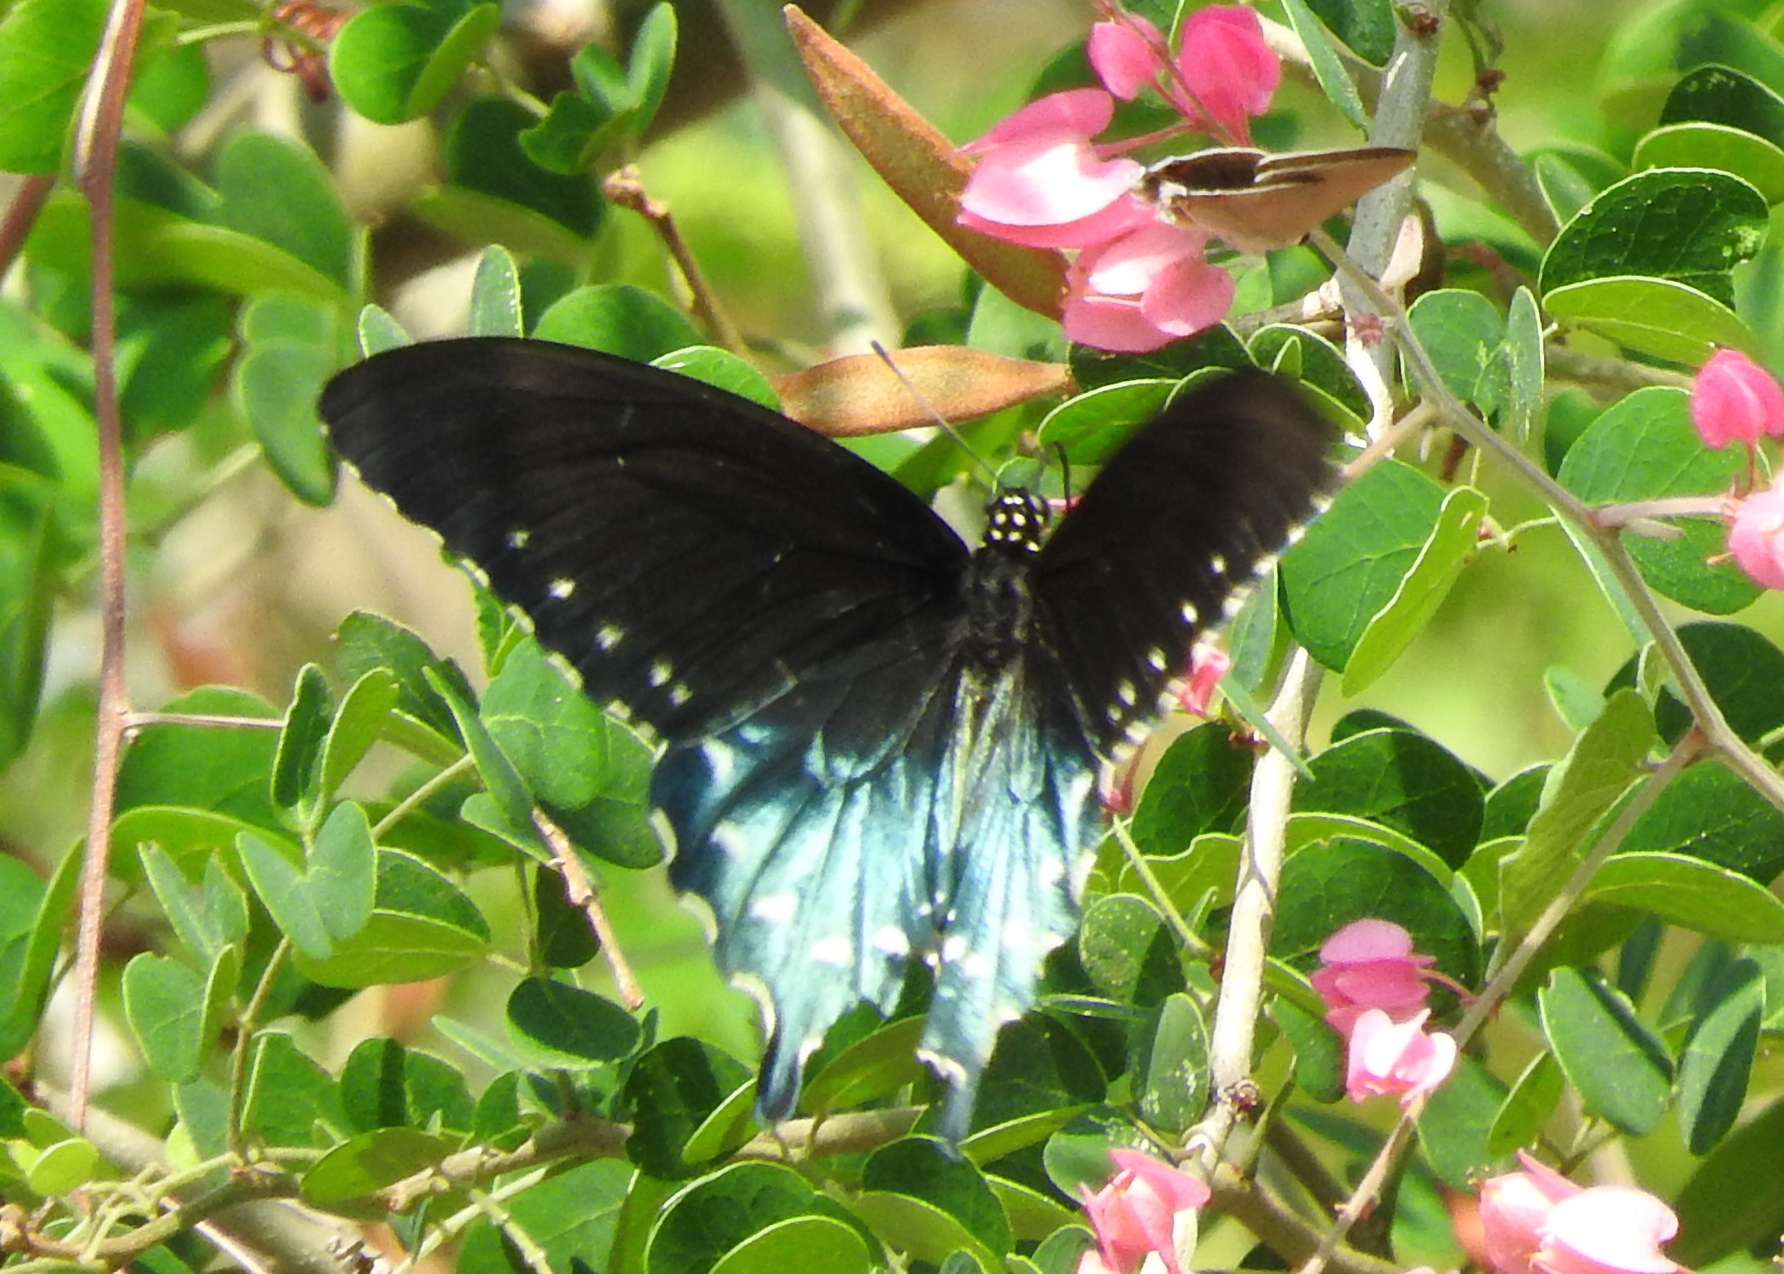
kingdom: Animalia
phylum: Arthropoda
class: Insecta
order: Lepidoptera
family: Papilionidae
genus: Battus
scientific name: Battus philenor
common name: Pipevine swallowtail
